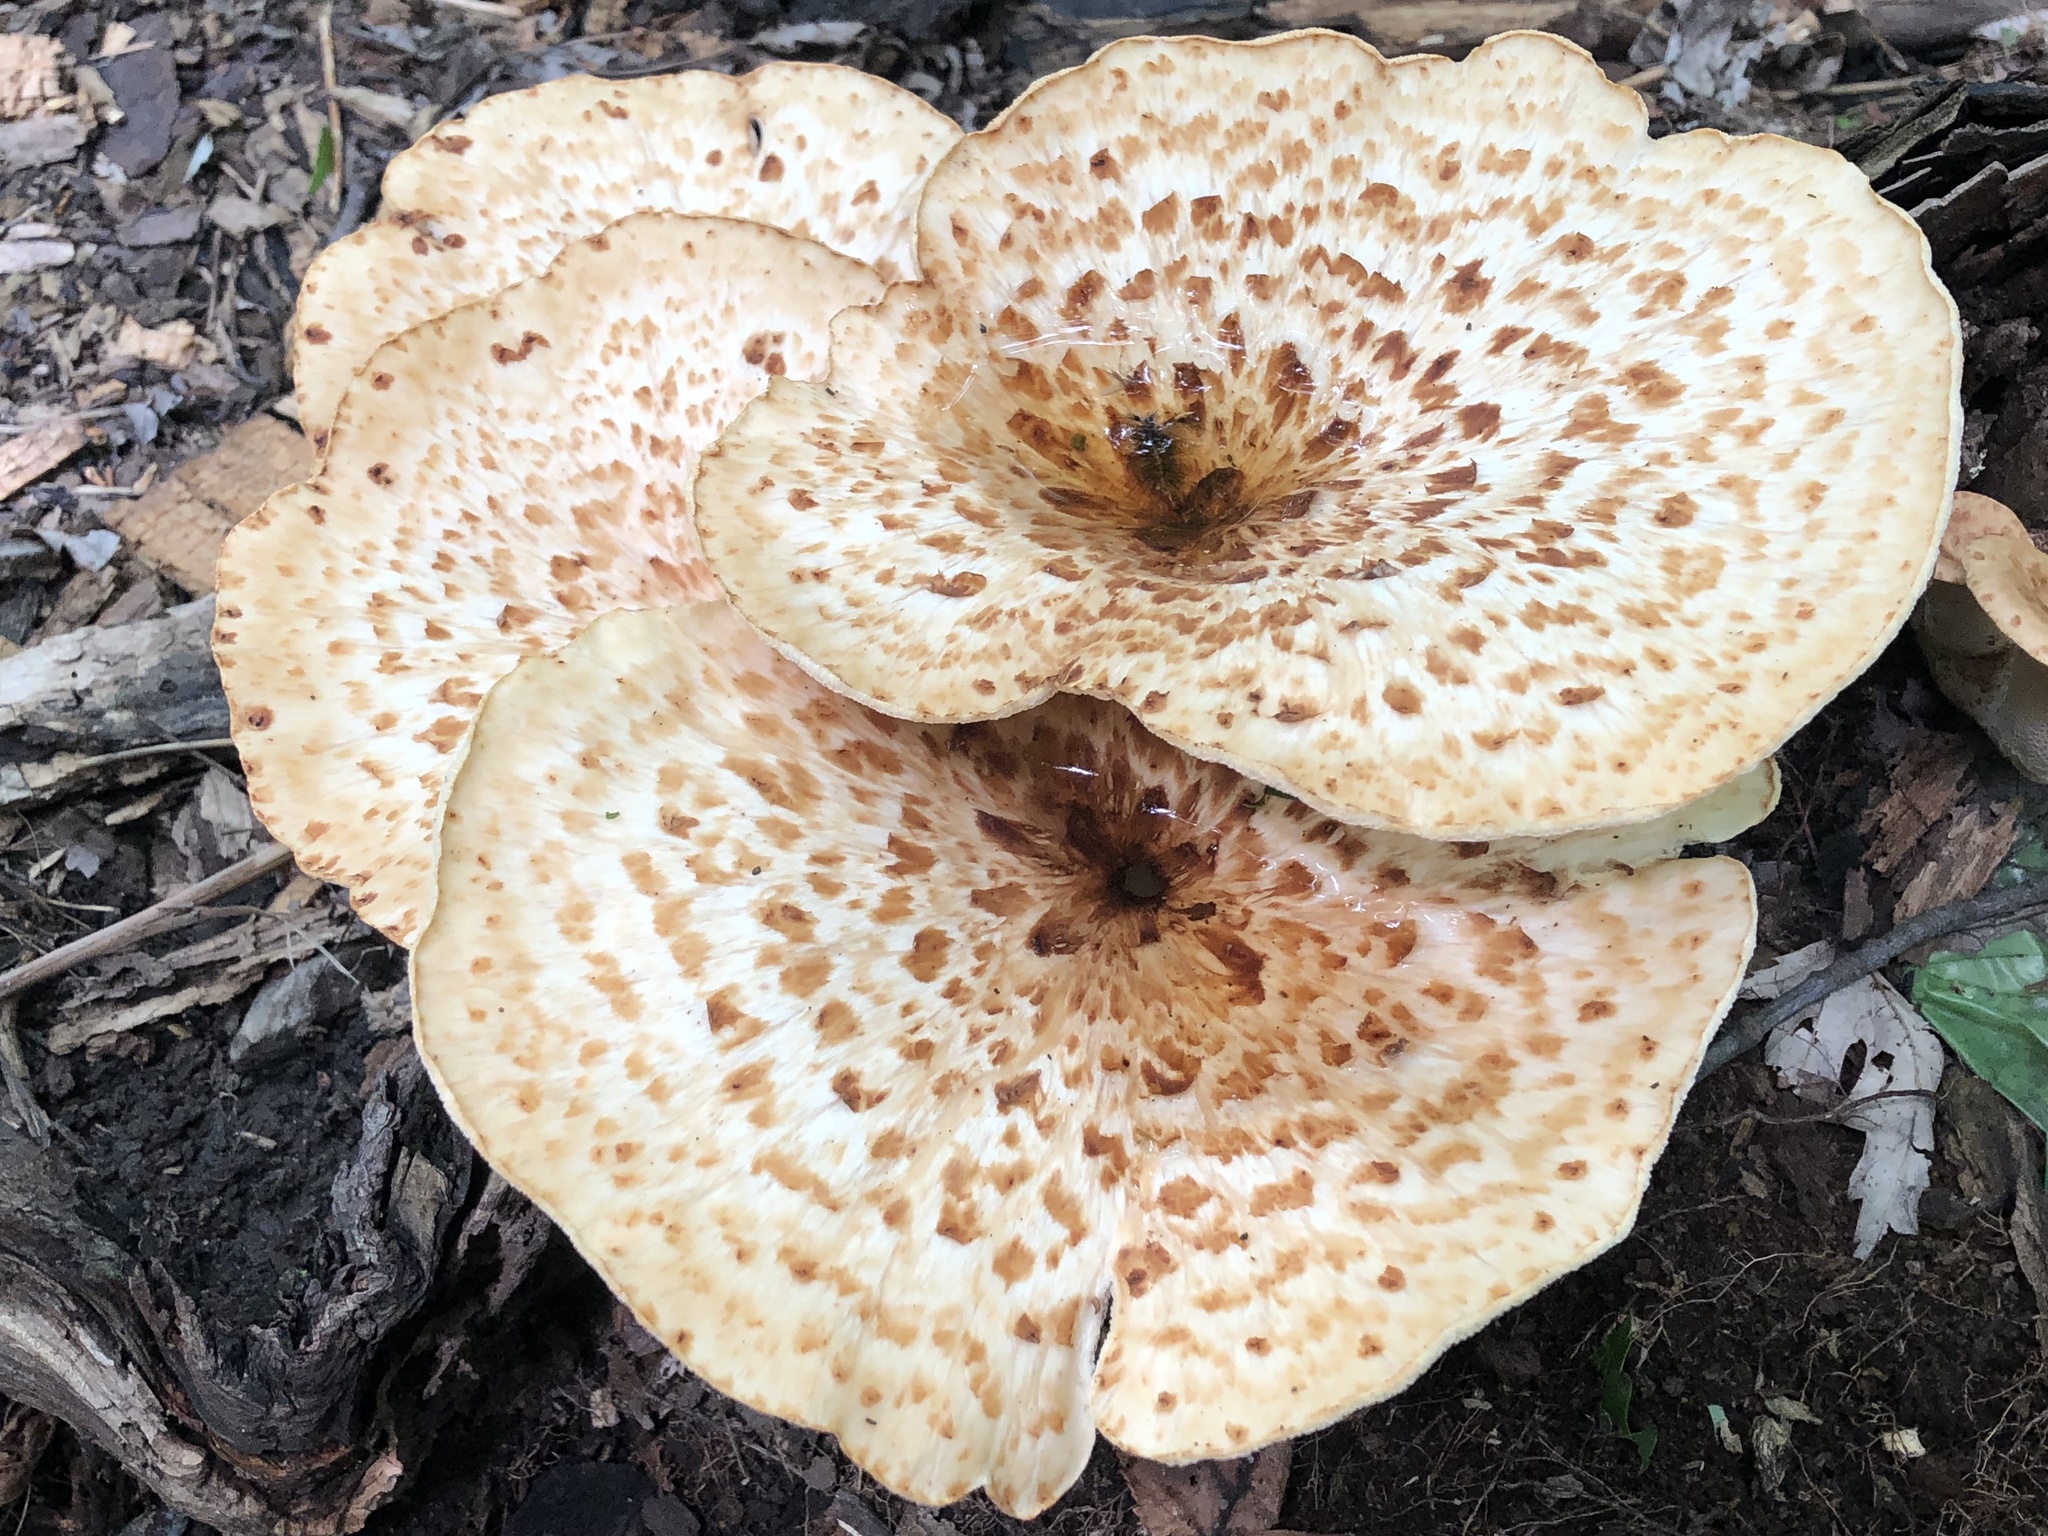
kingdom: Fungi
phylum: Basidiomycota
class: Agaricomycetes
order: Polyporales
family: Polyporaceae
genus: Cerioporus
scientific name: Cerioporus squamosus
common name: Dryad's saddle
